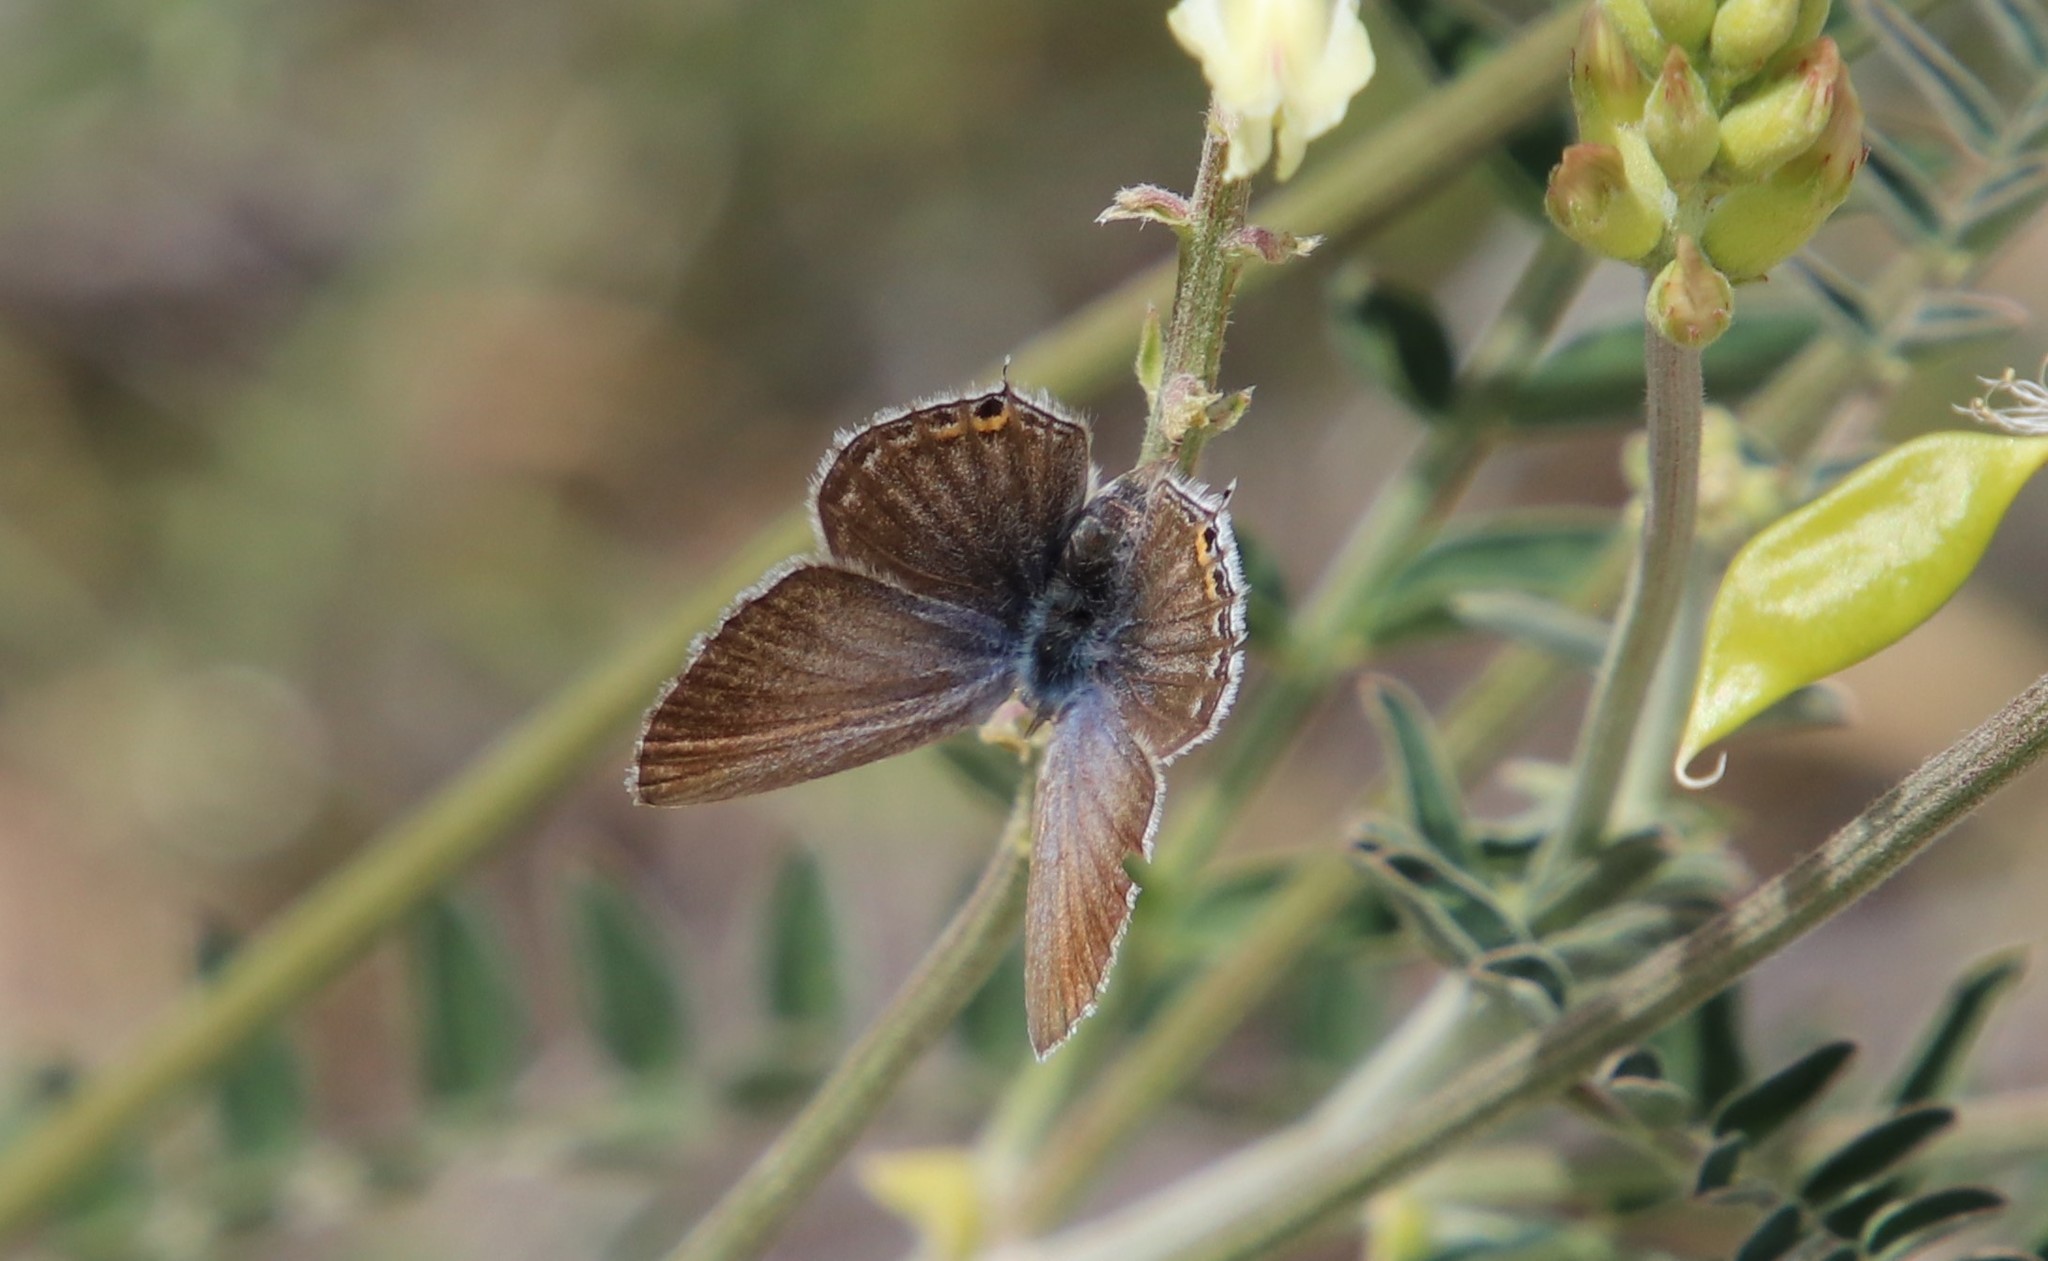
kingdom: Animalia
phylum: Arthropoda
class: Insecta
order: Lepidoptera
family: Lycaenidae
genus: Elkalyce
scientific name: Elkalyce amyntula
